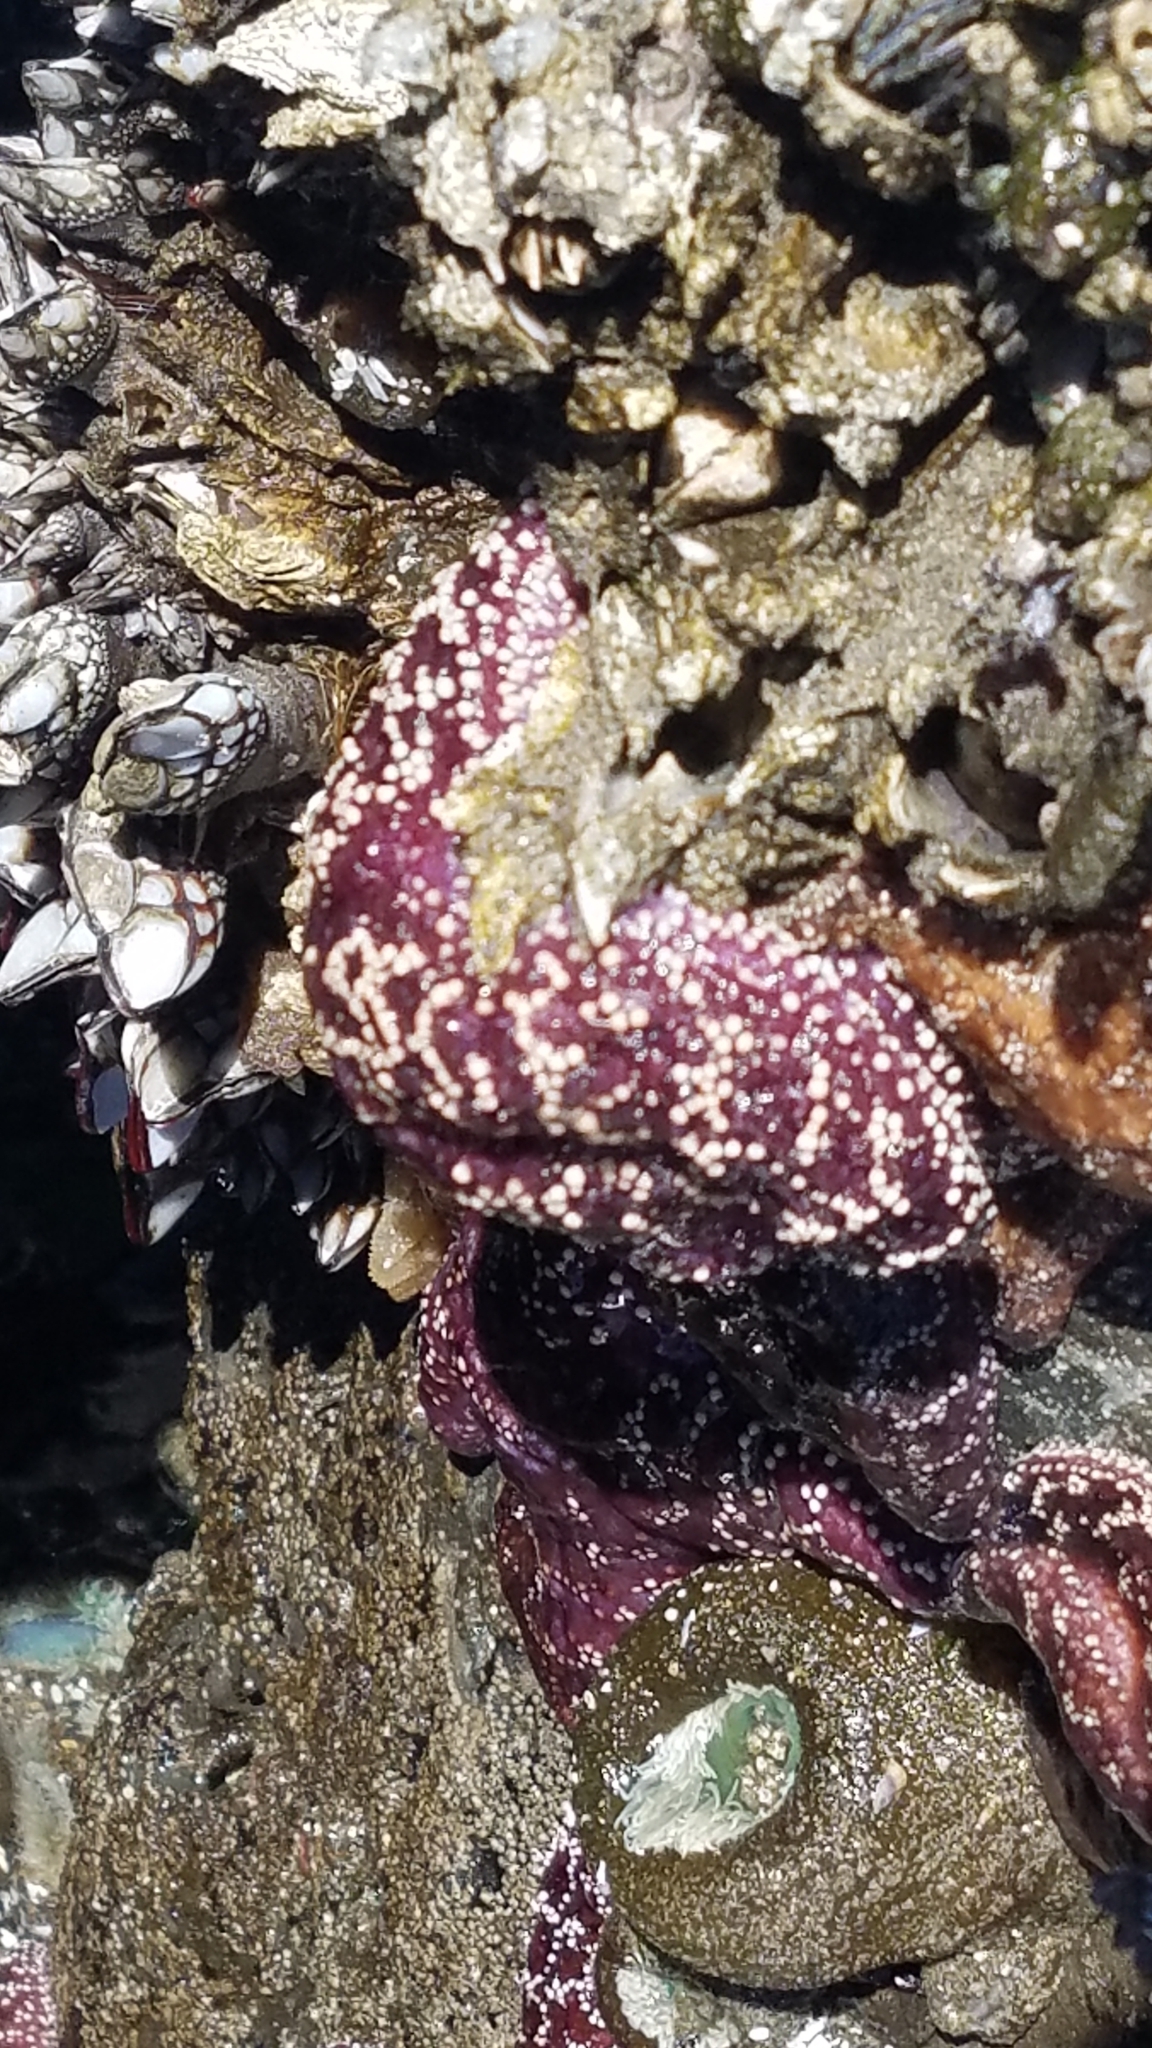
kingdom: Animalia
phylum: Echinodermata
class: Asteroidea
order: Forcipulatida
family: Asteriidae
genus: Pisaster
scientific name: Pisaster ochraceus
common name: Ochre stars
